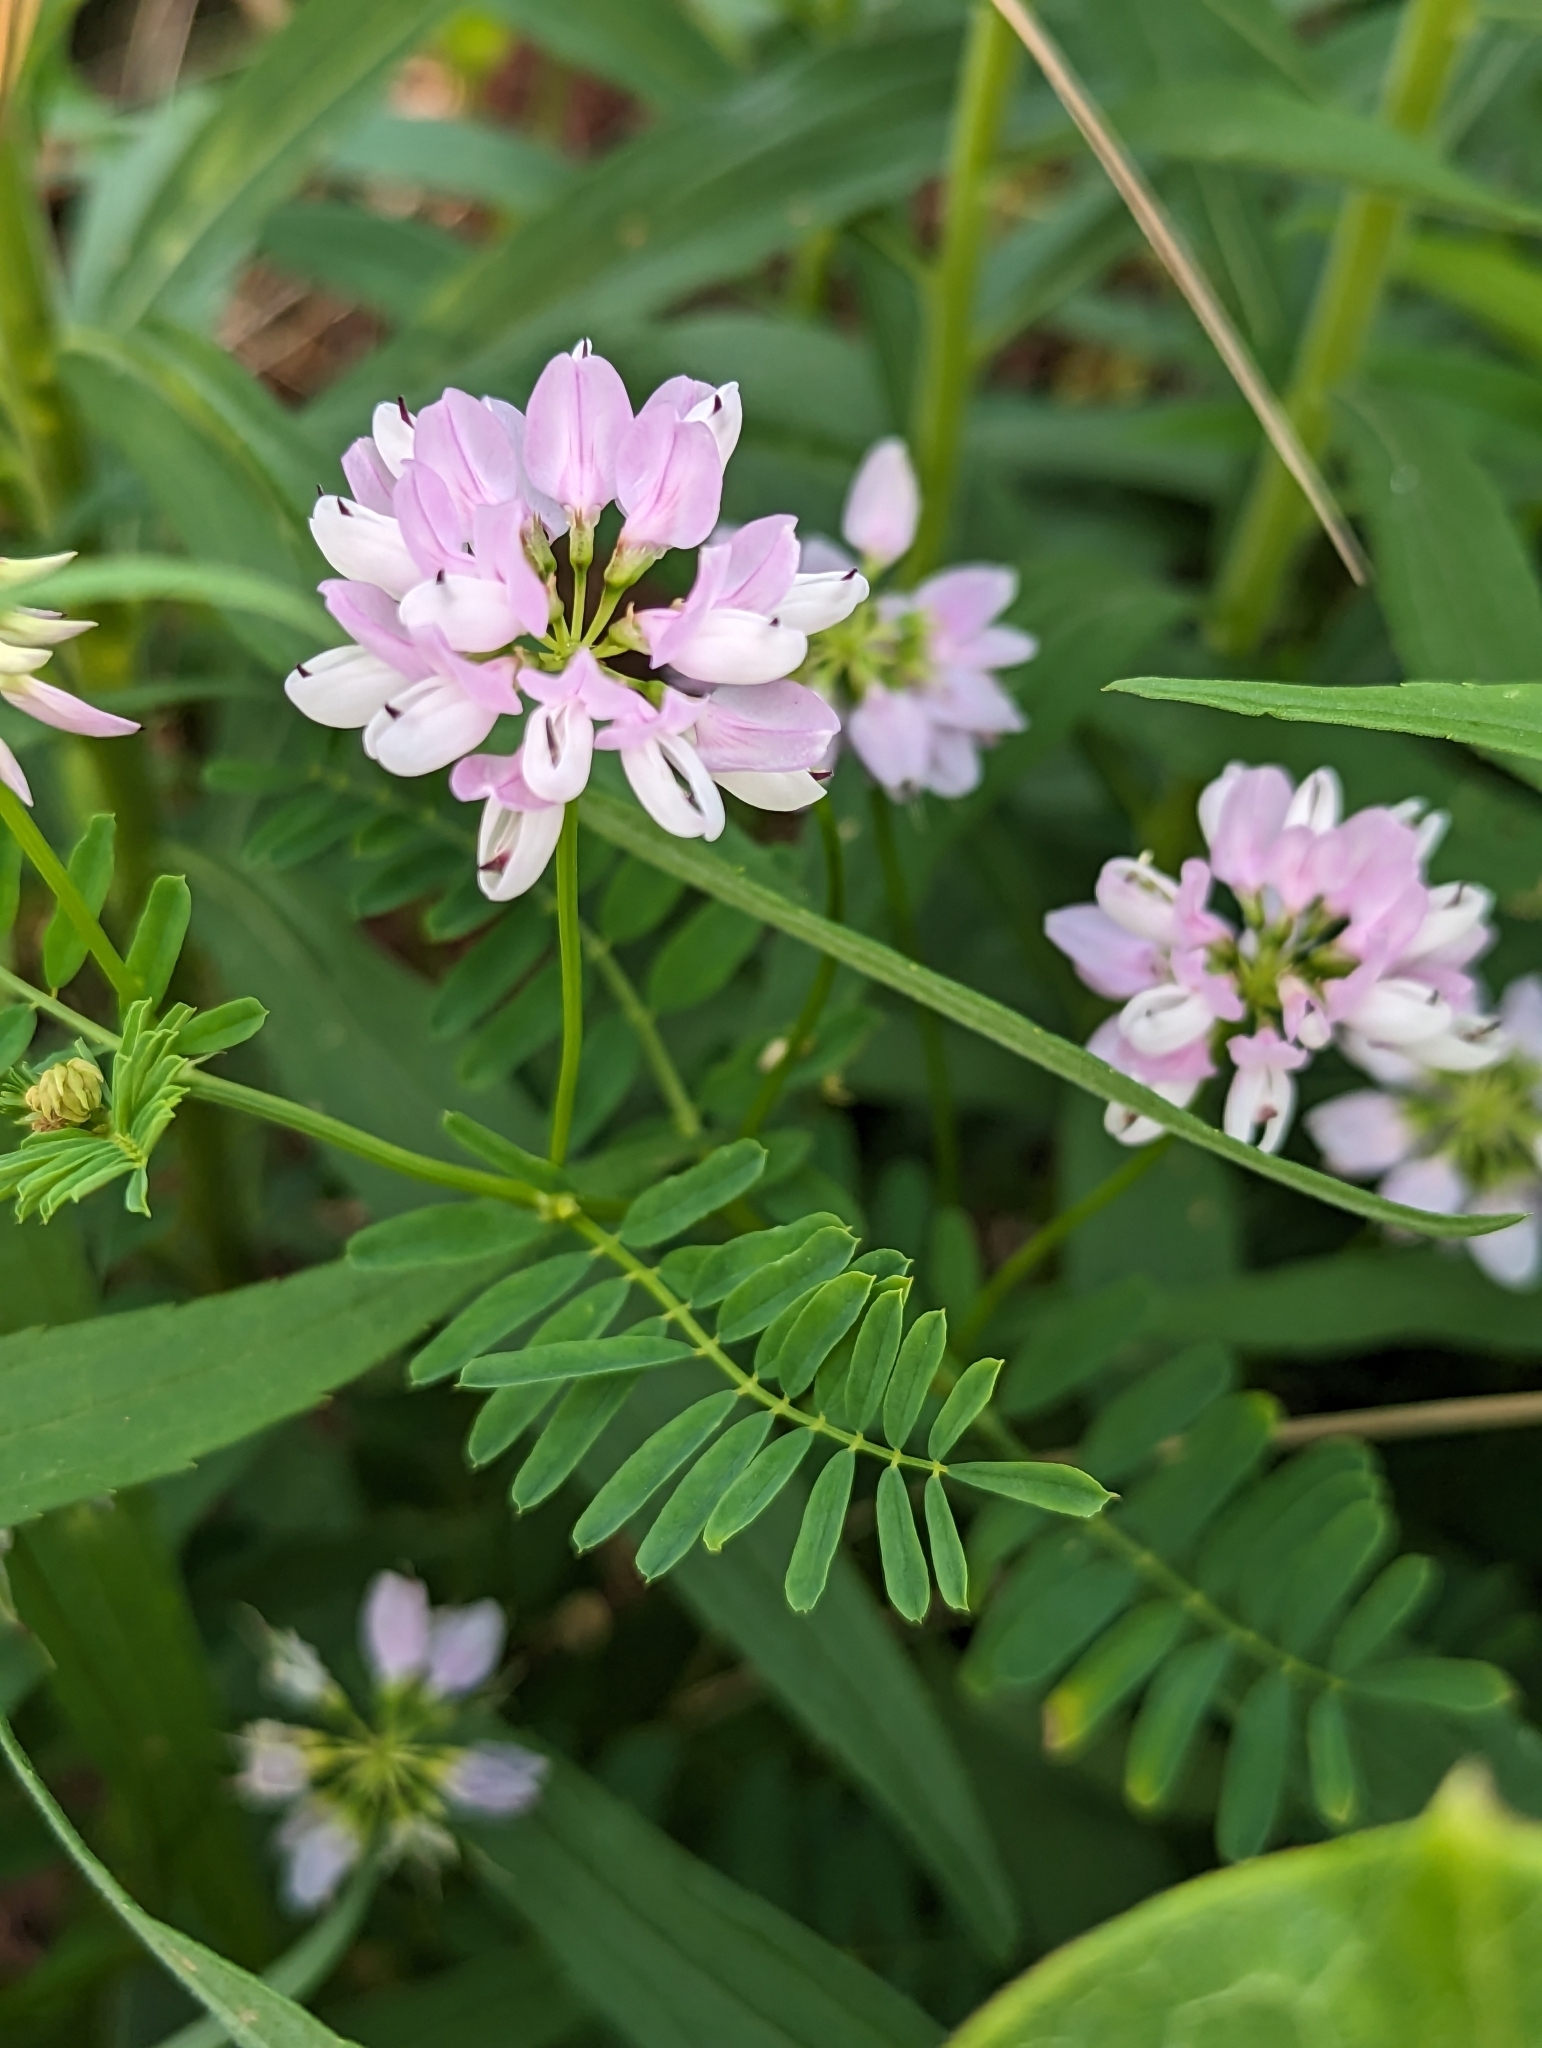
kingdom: Plantae
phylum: Tracheophyta
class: Magnoliopsida
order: Fabales
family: Fabaceae
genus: Coronilla
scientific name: Coronilla varia
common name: Crownvetch
